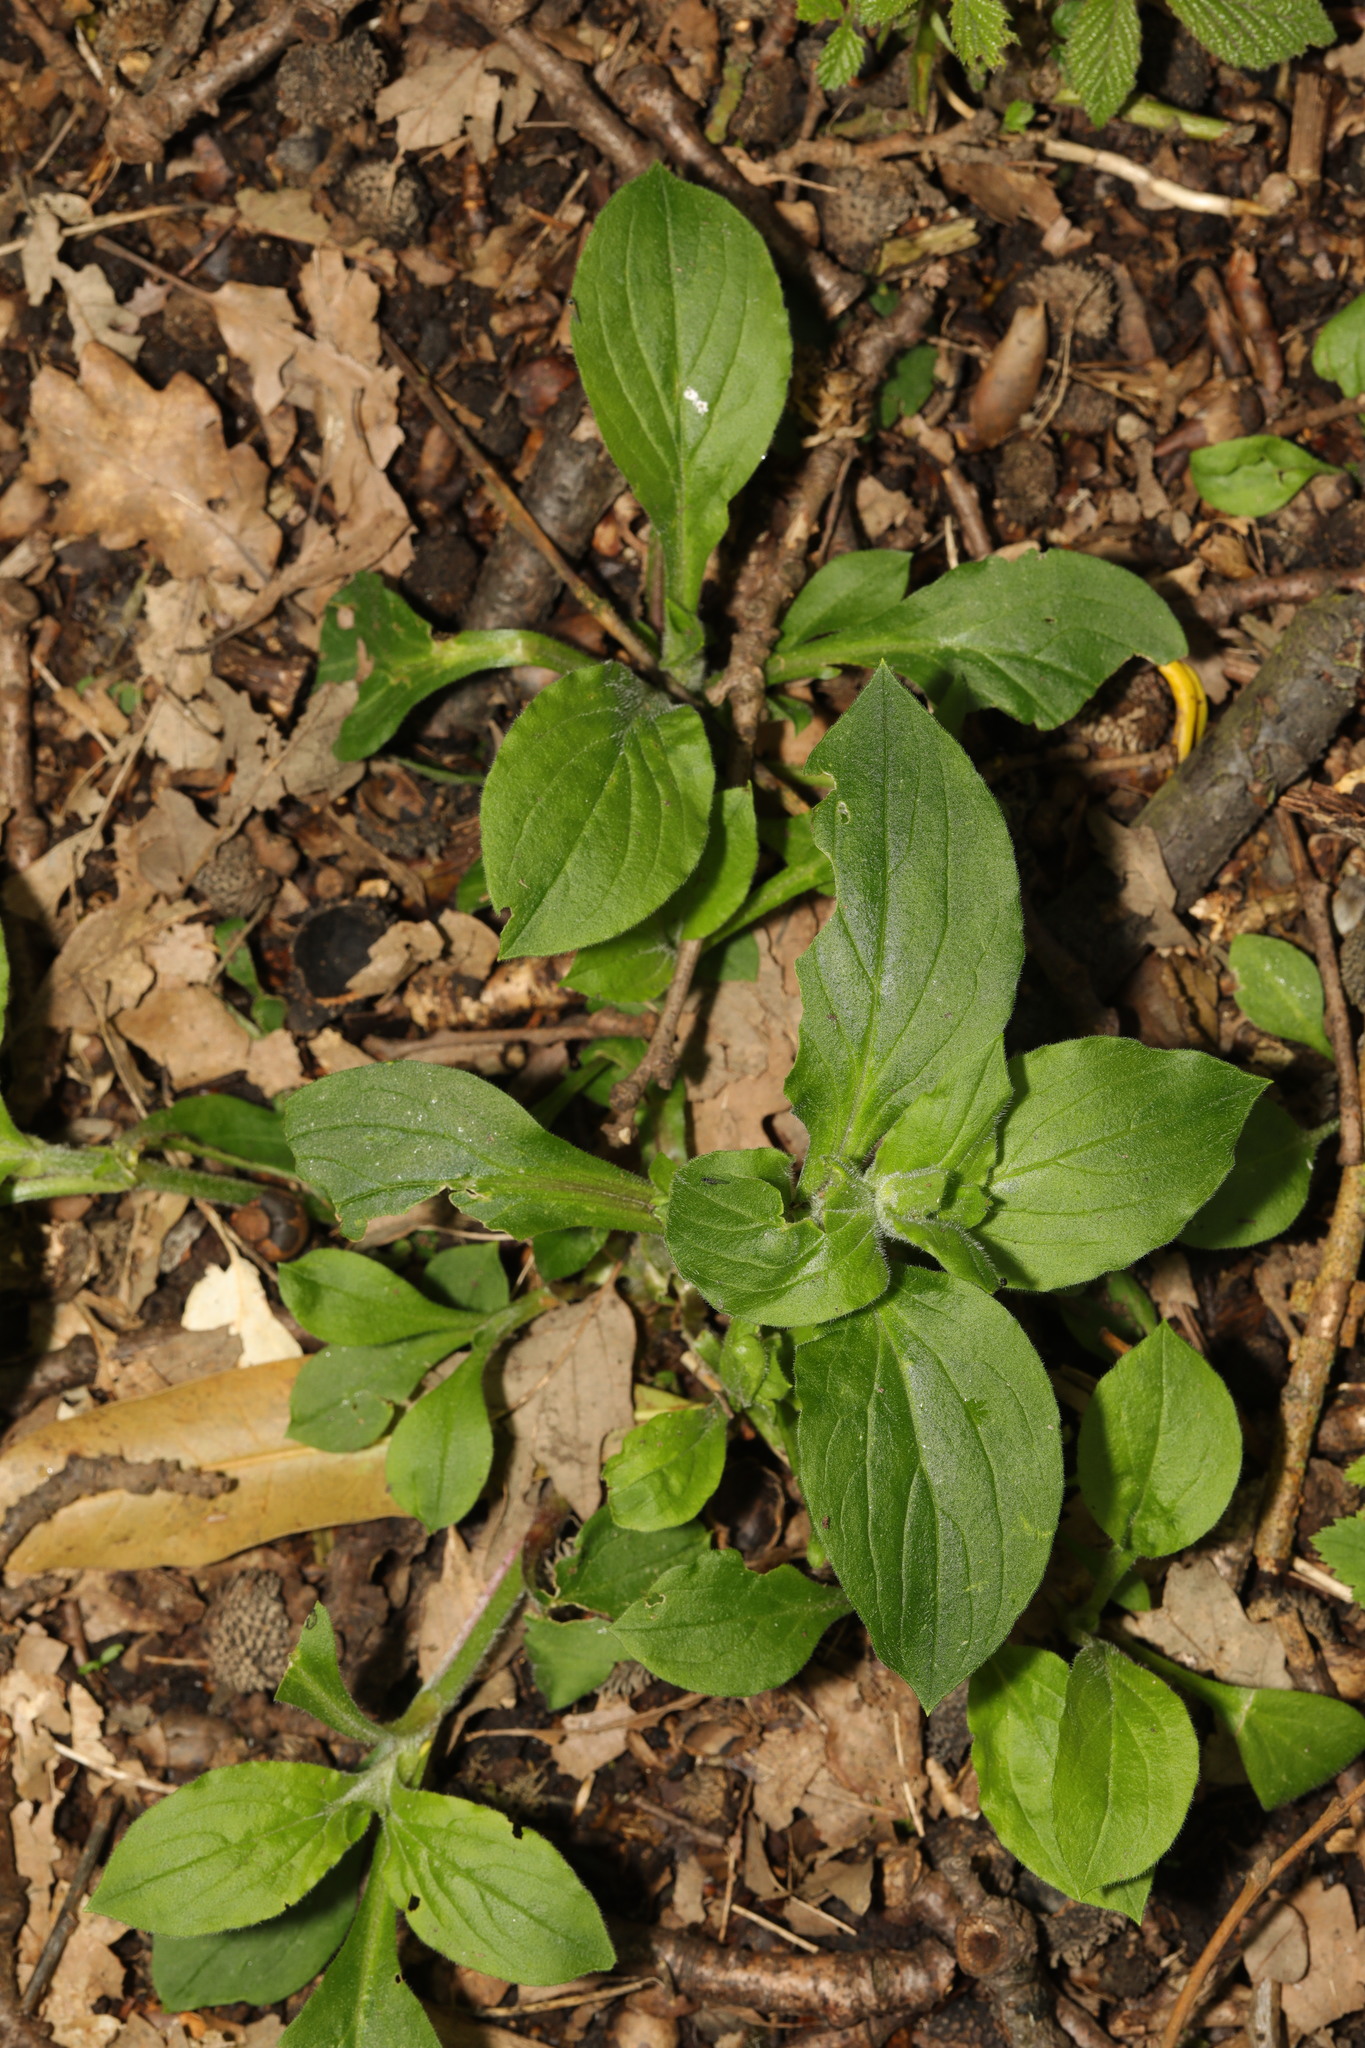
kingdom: Plantae
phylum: Tracheophyta
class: Magnoliopsida
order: Caryophyllales
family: Caryophyllaceae
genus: Silene
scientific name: Silene dioica
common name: Red campion
